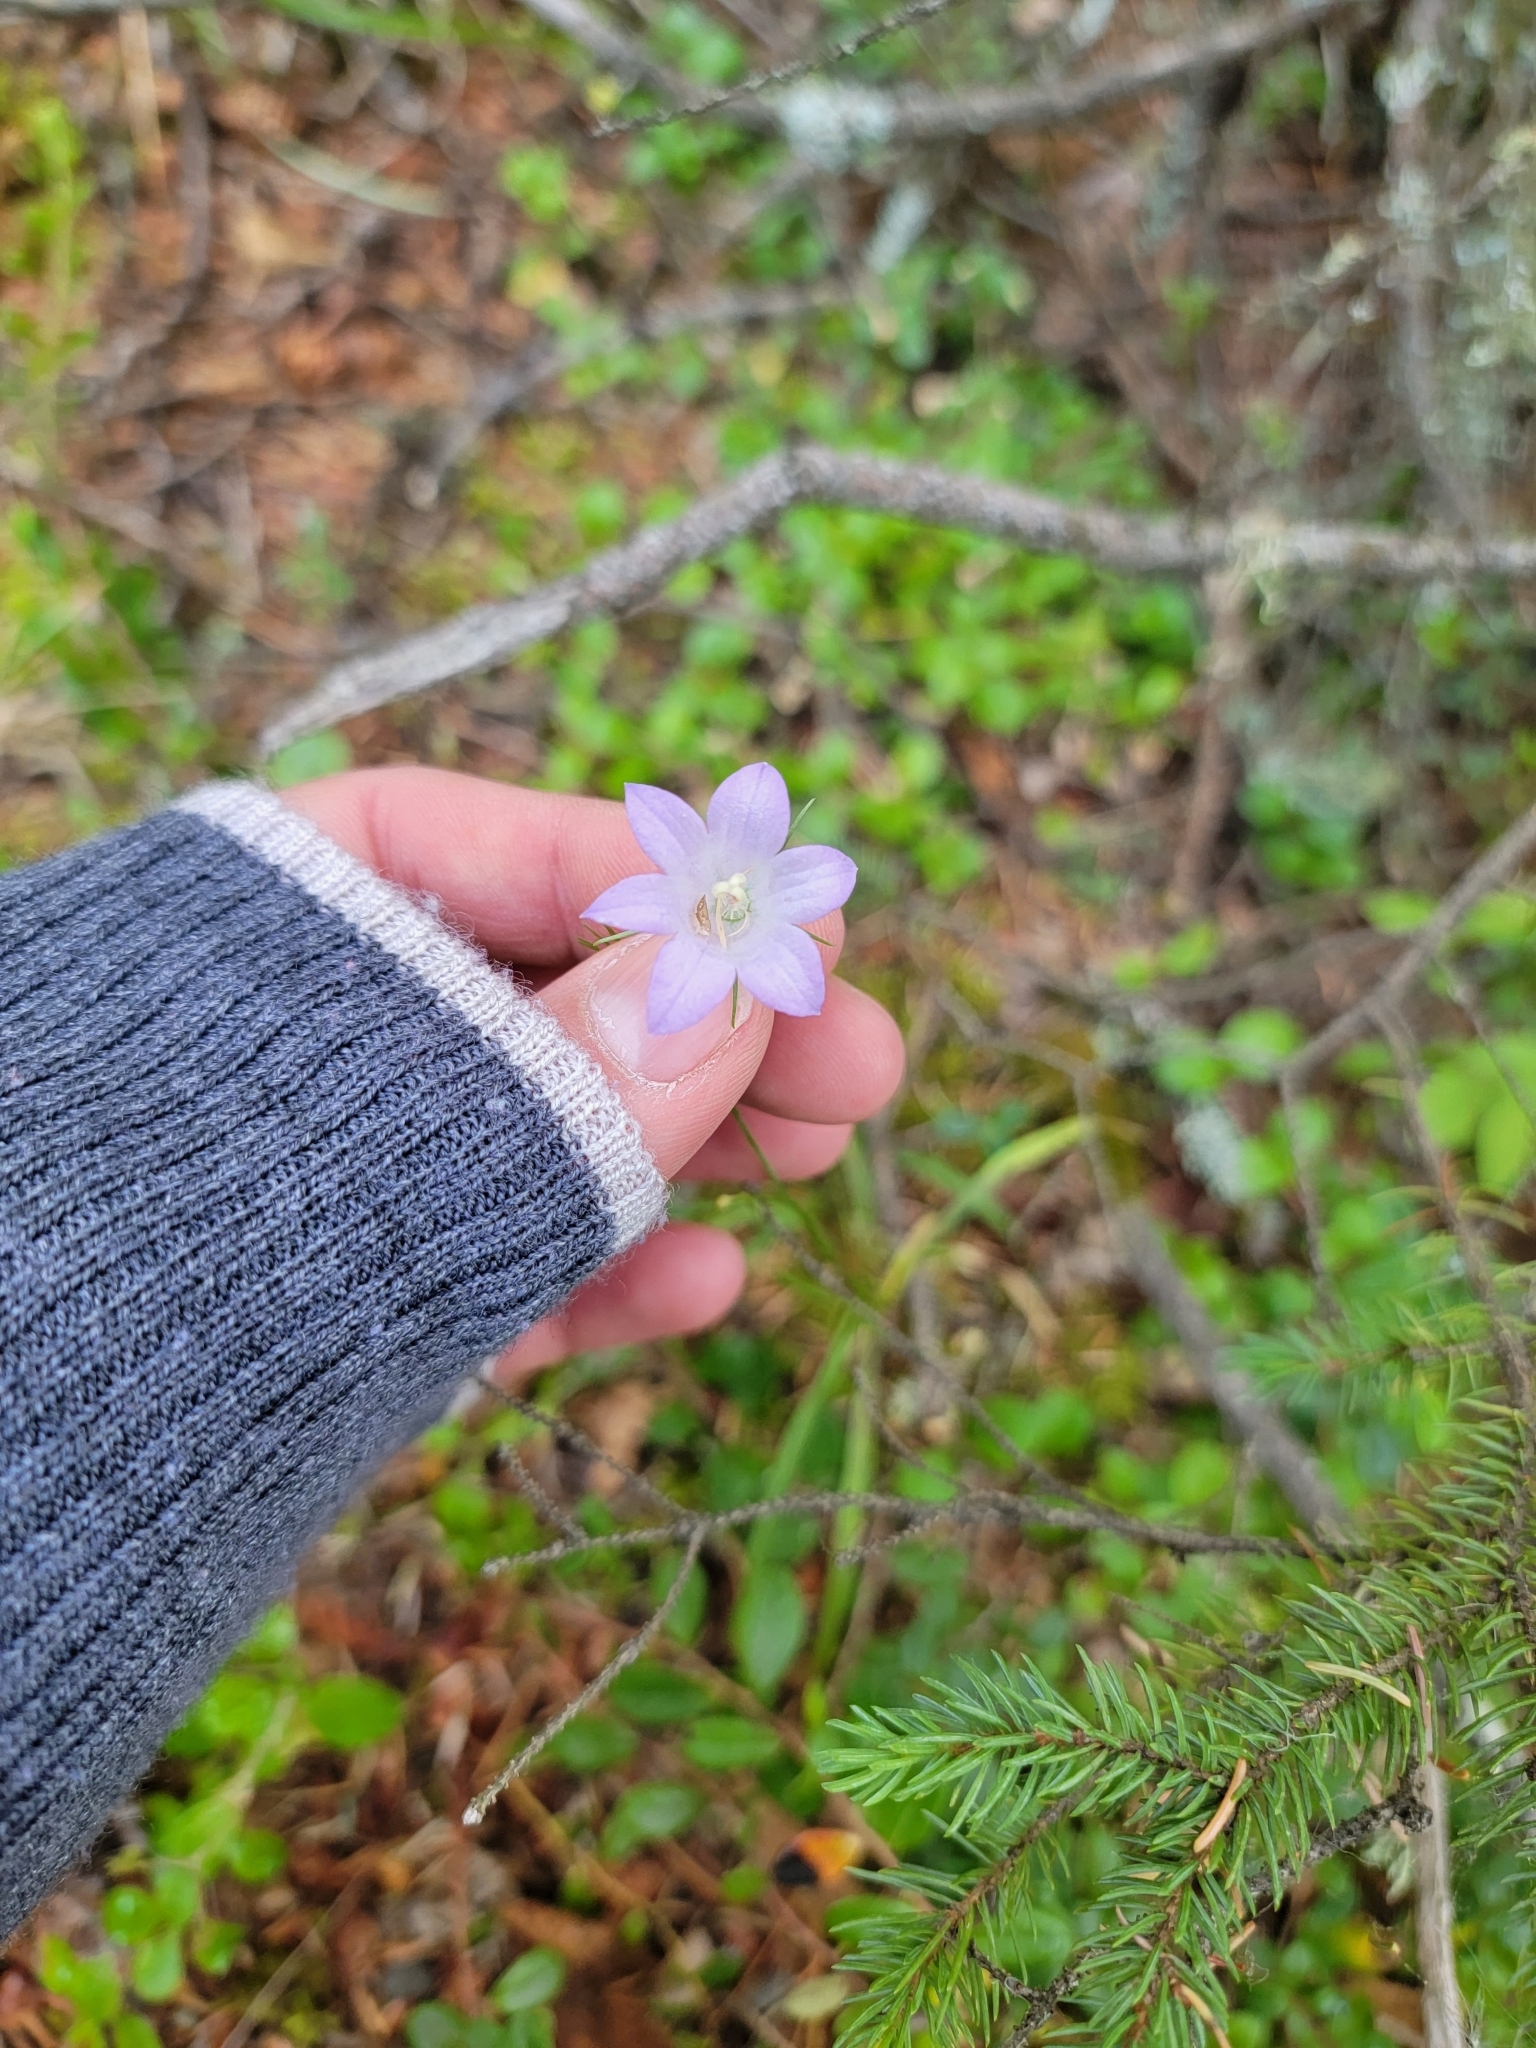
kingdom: Plantae
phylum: Tracheophyta
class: Magnoliopsida
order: Asterales
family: Campanulaceae
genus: Campanula
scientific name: Campanula alaskana
